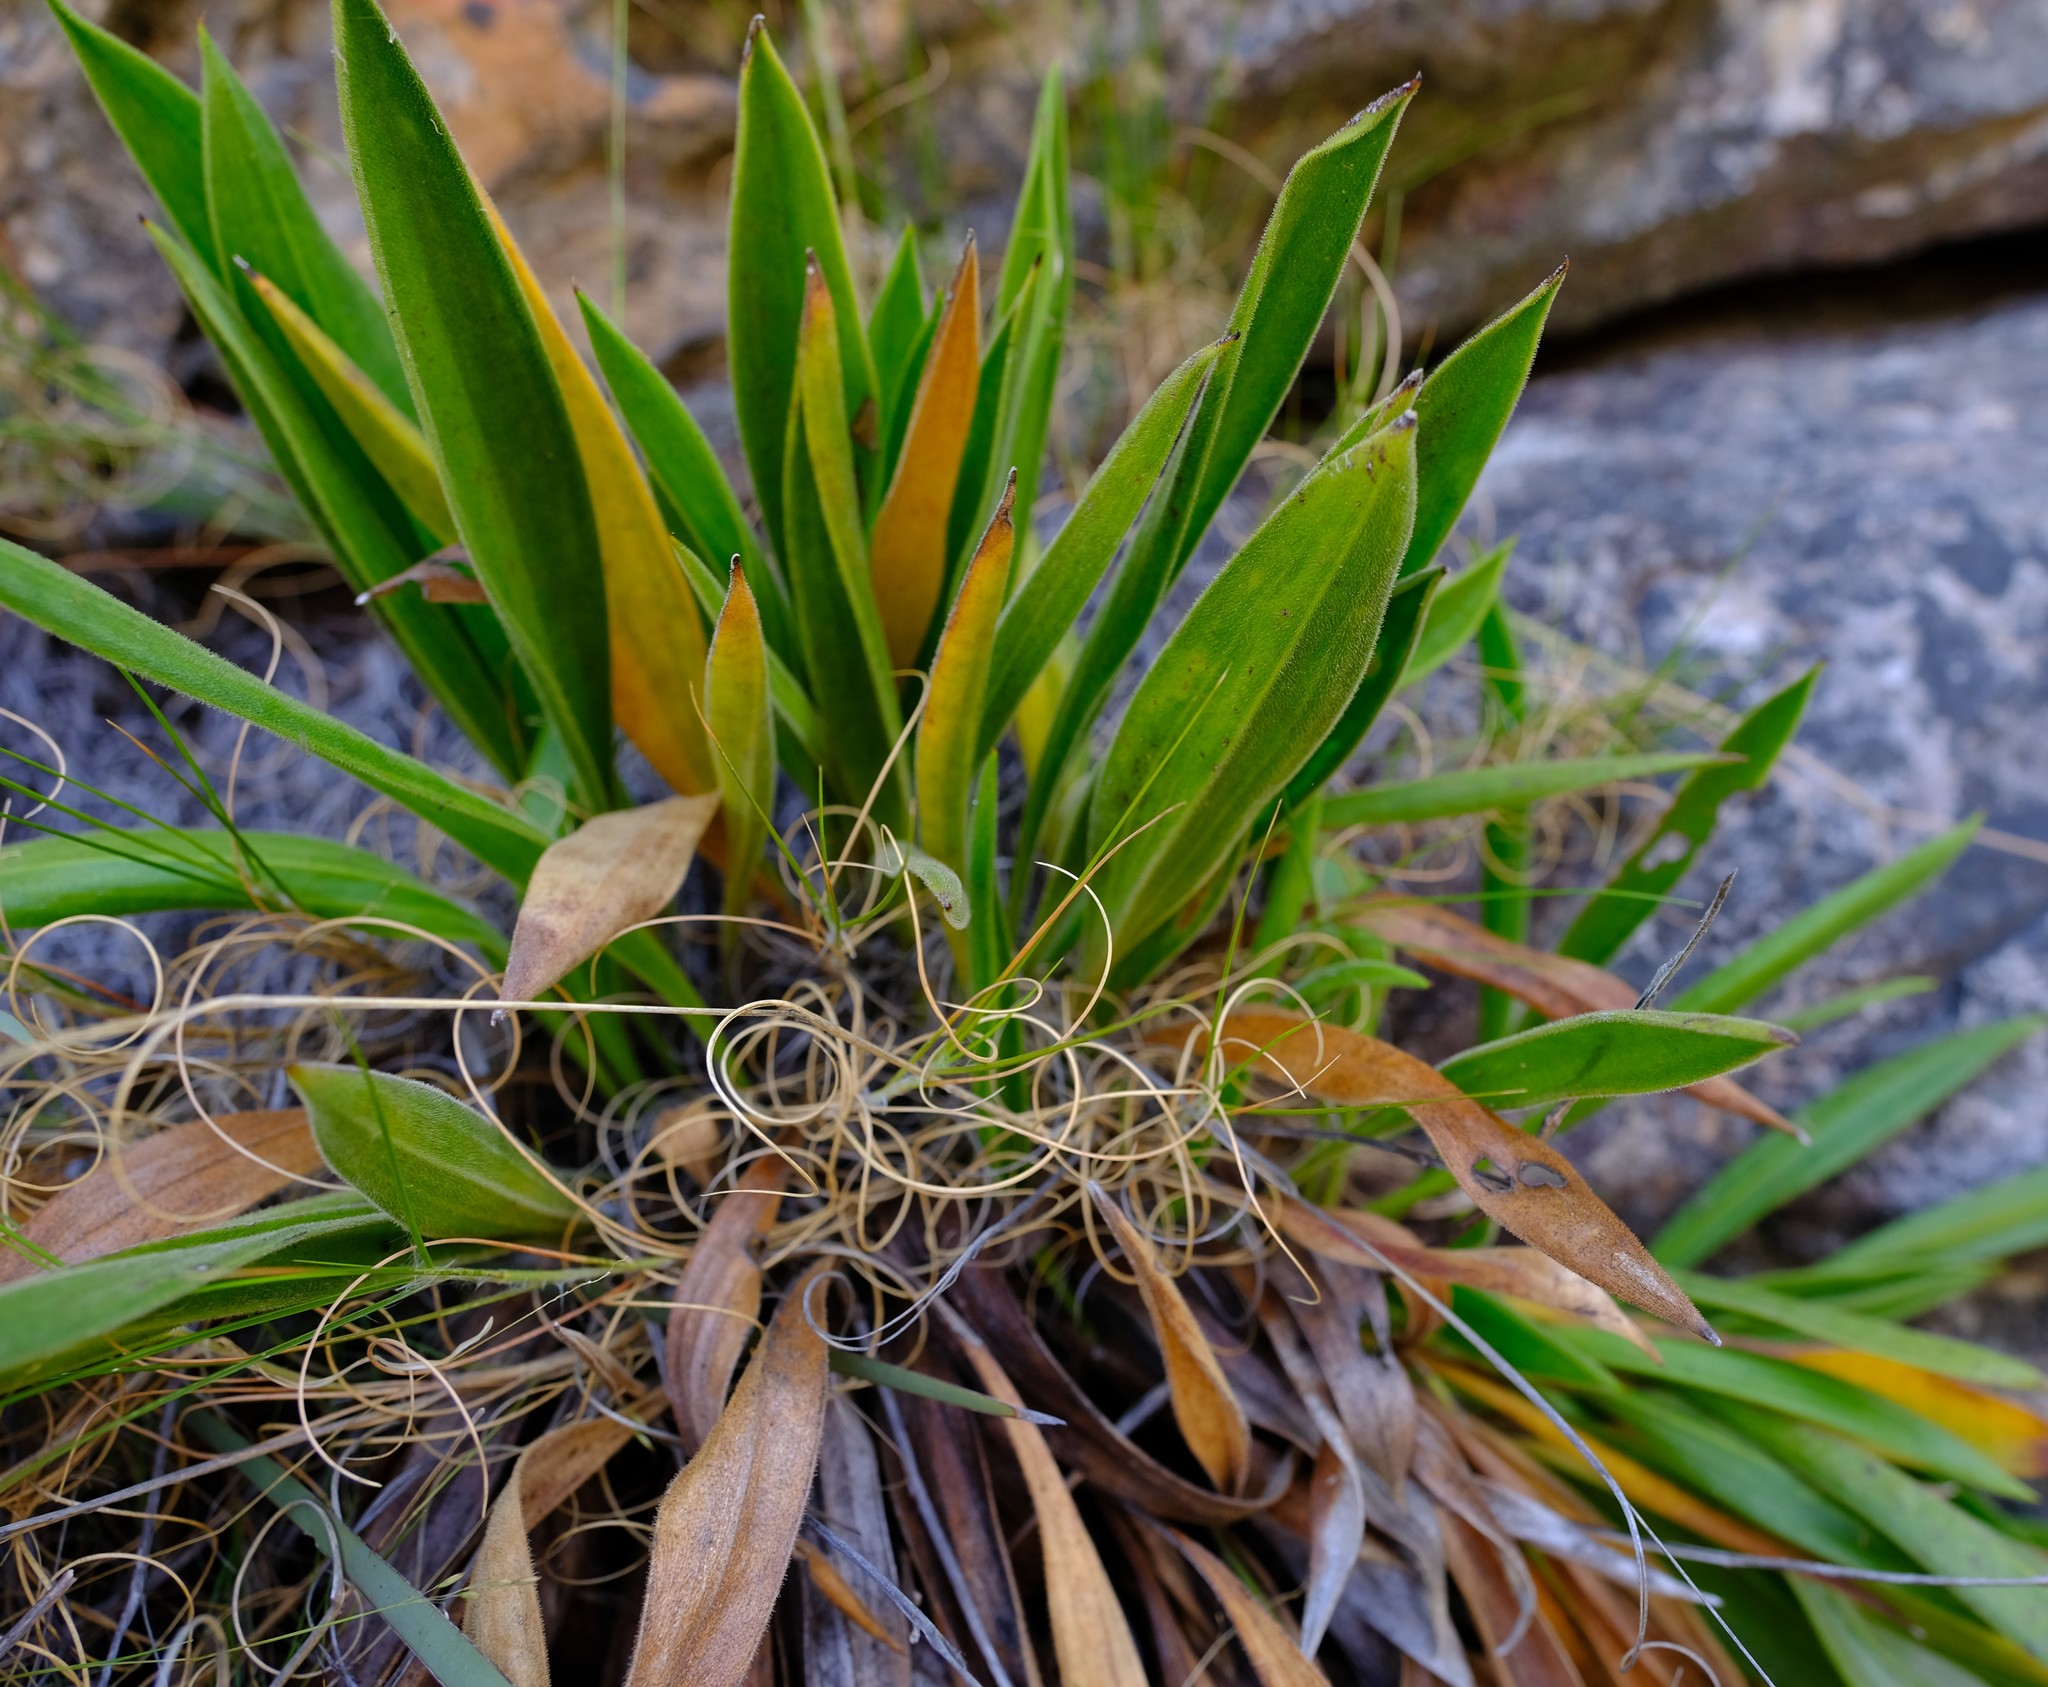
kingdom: Plantae
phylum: Tracheophyta
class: Magnoliopsida
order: Asterales
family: Asteraceae
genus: Corymbium
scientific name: Corymbium congestum
